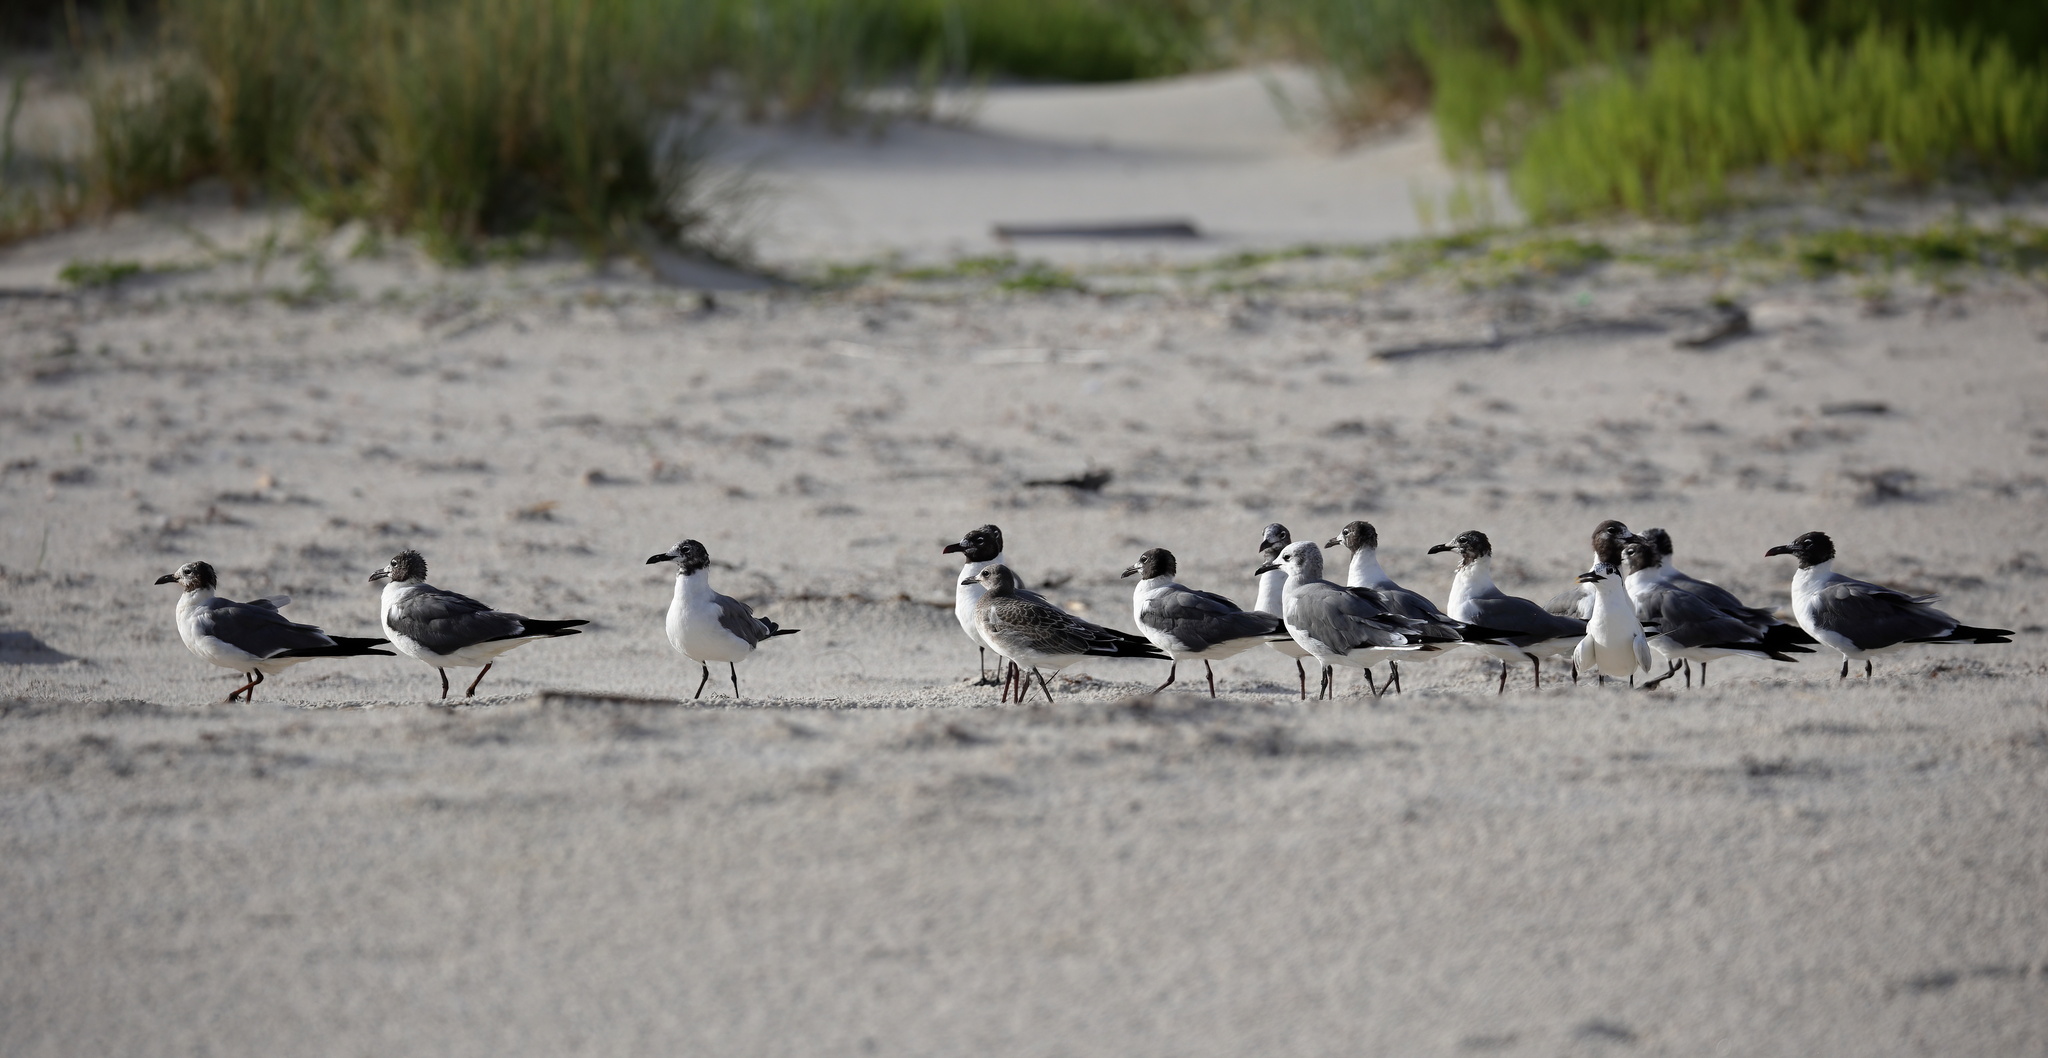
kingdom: Animalia
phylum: Chordata
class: Aves
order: Charadriiformes
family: Laridae
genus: Leucophaeus
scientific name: Leucophaeus atricilla
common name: Laughing gull
